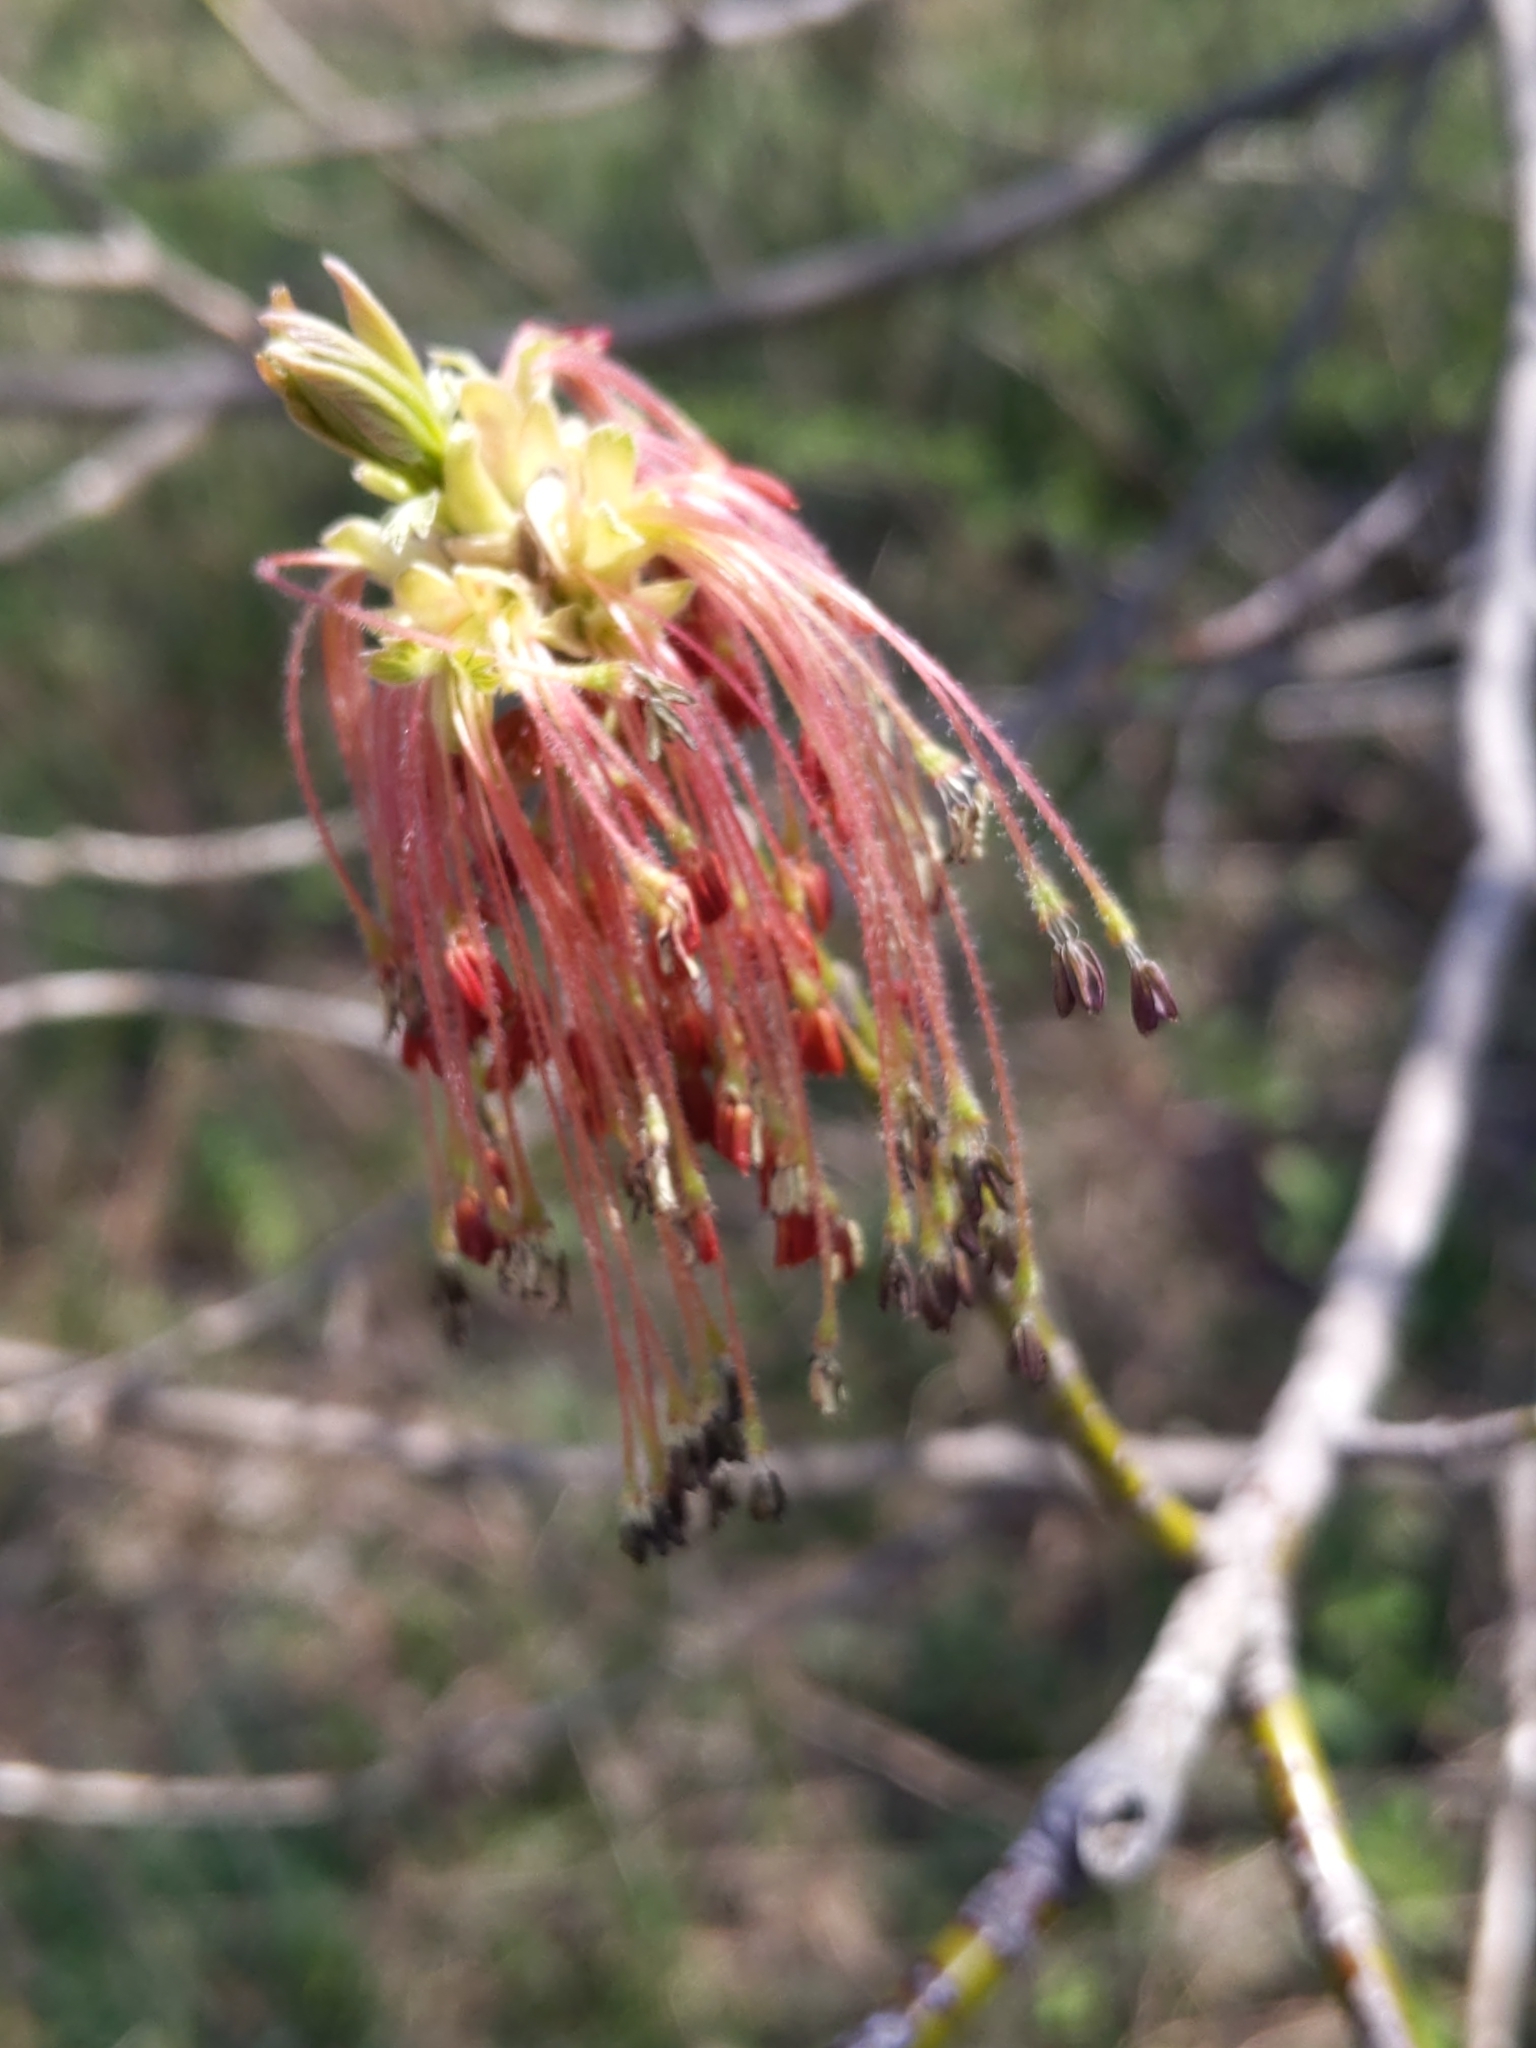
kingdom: Plantae
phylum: Tracheophyta
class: Magnoliopsida
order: Sapindales
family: Sapindaceae
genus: Acer
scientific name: Acer negundo
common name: Ashleaf maple
